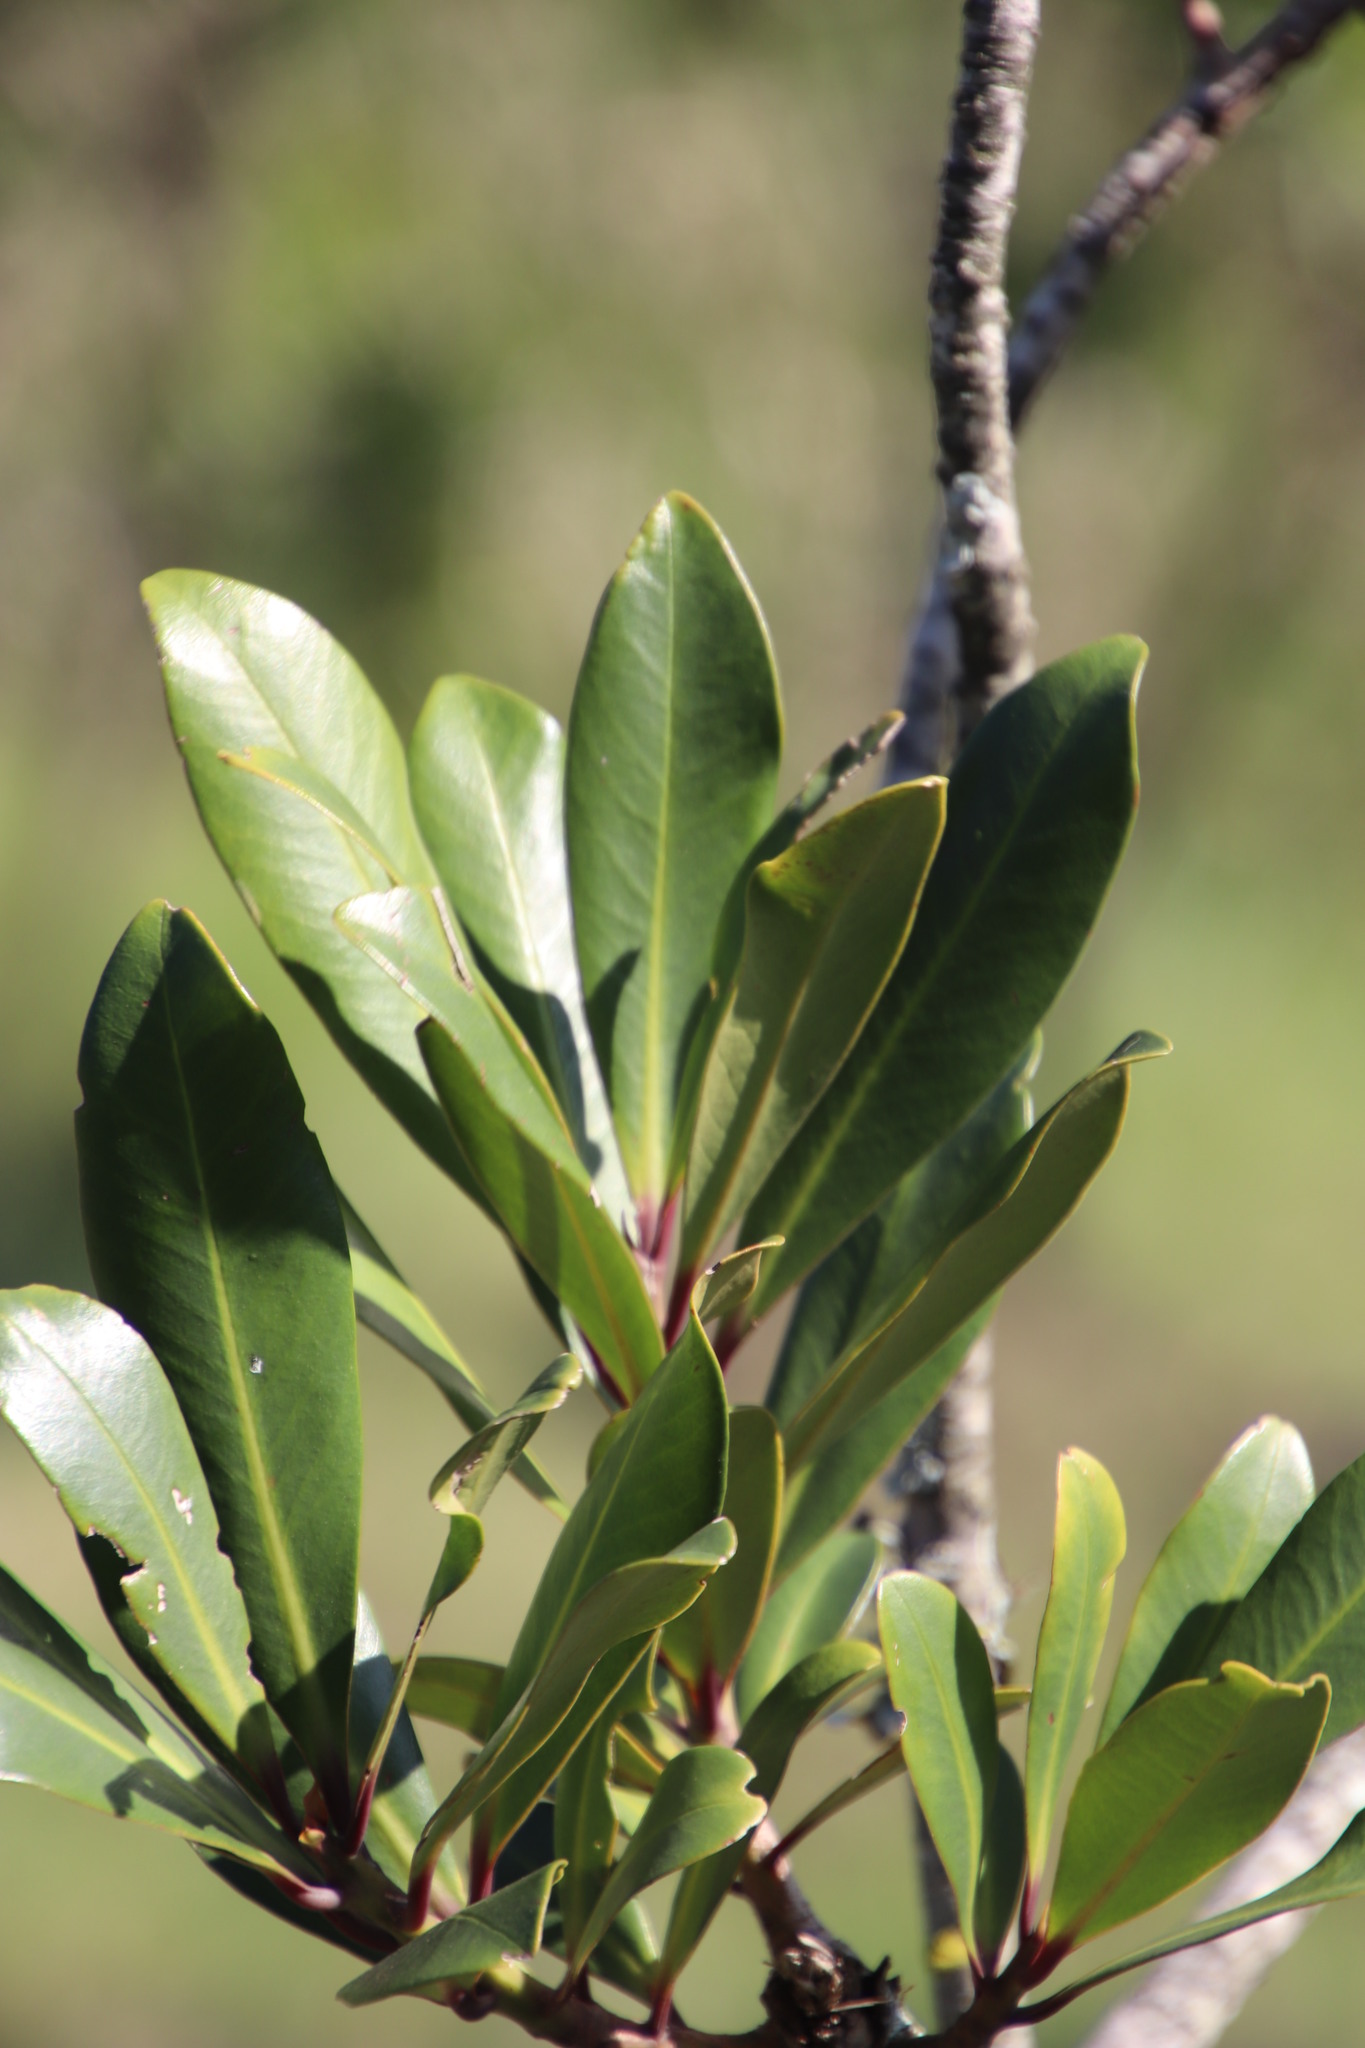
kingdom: Plantae
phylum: Tracheophyta
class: Magnoliopsida
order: Ericales
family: Primulaceae
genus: Myrsine
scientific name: Myrsine melanophloeos
